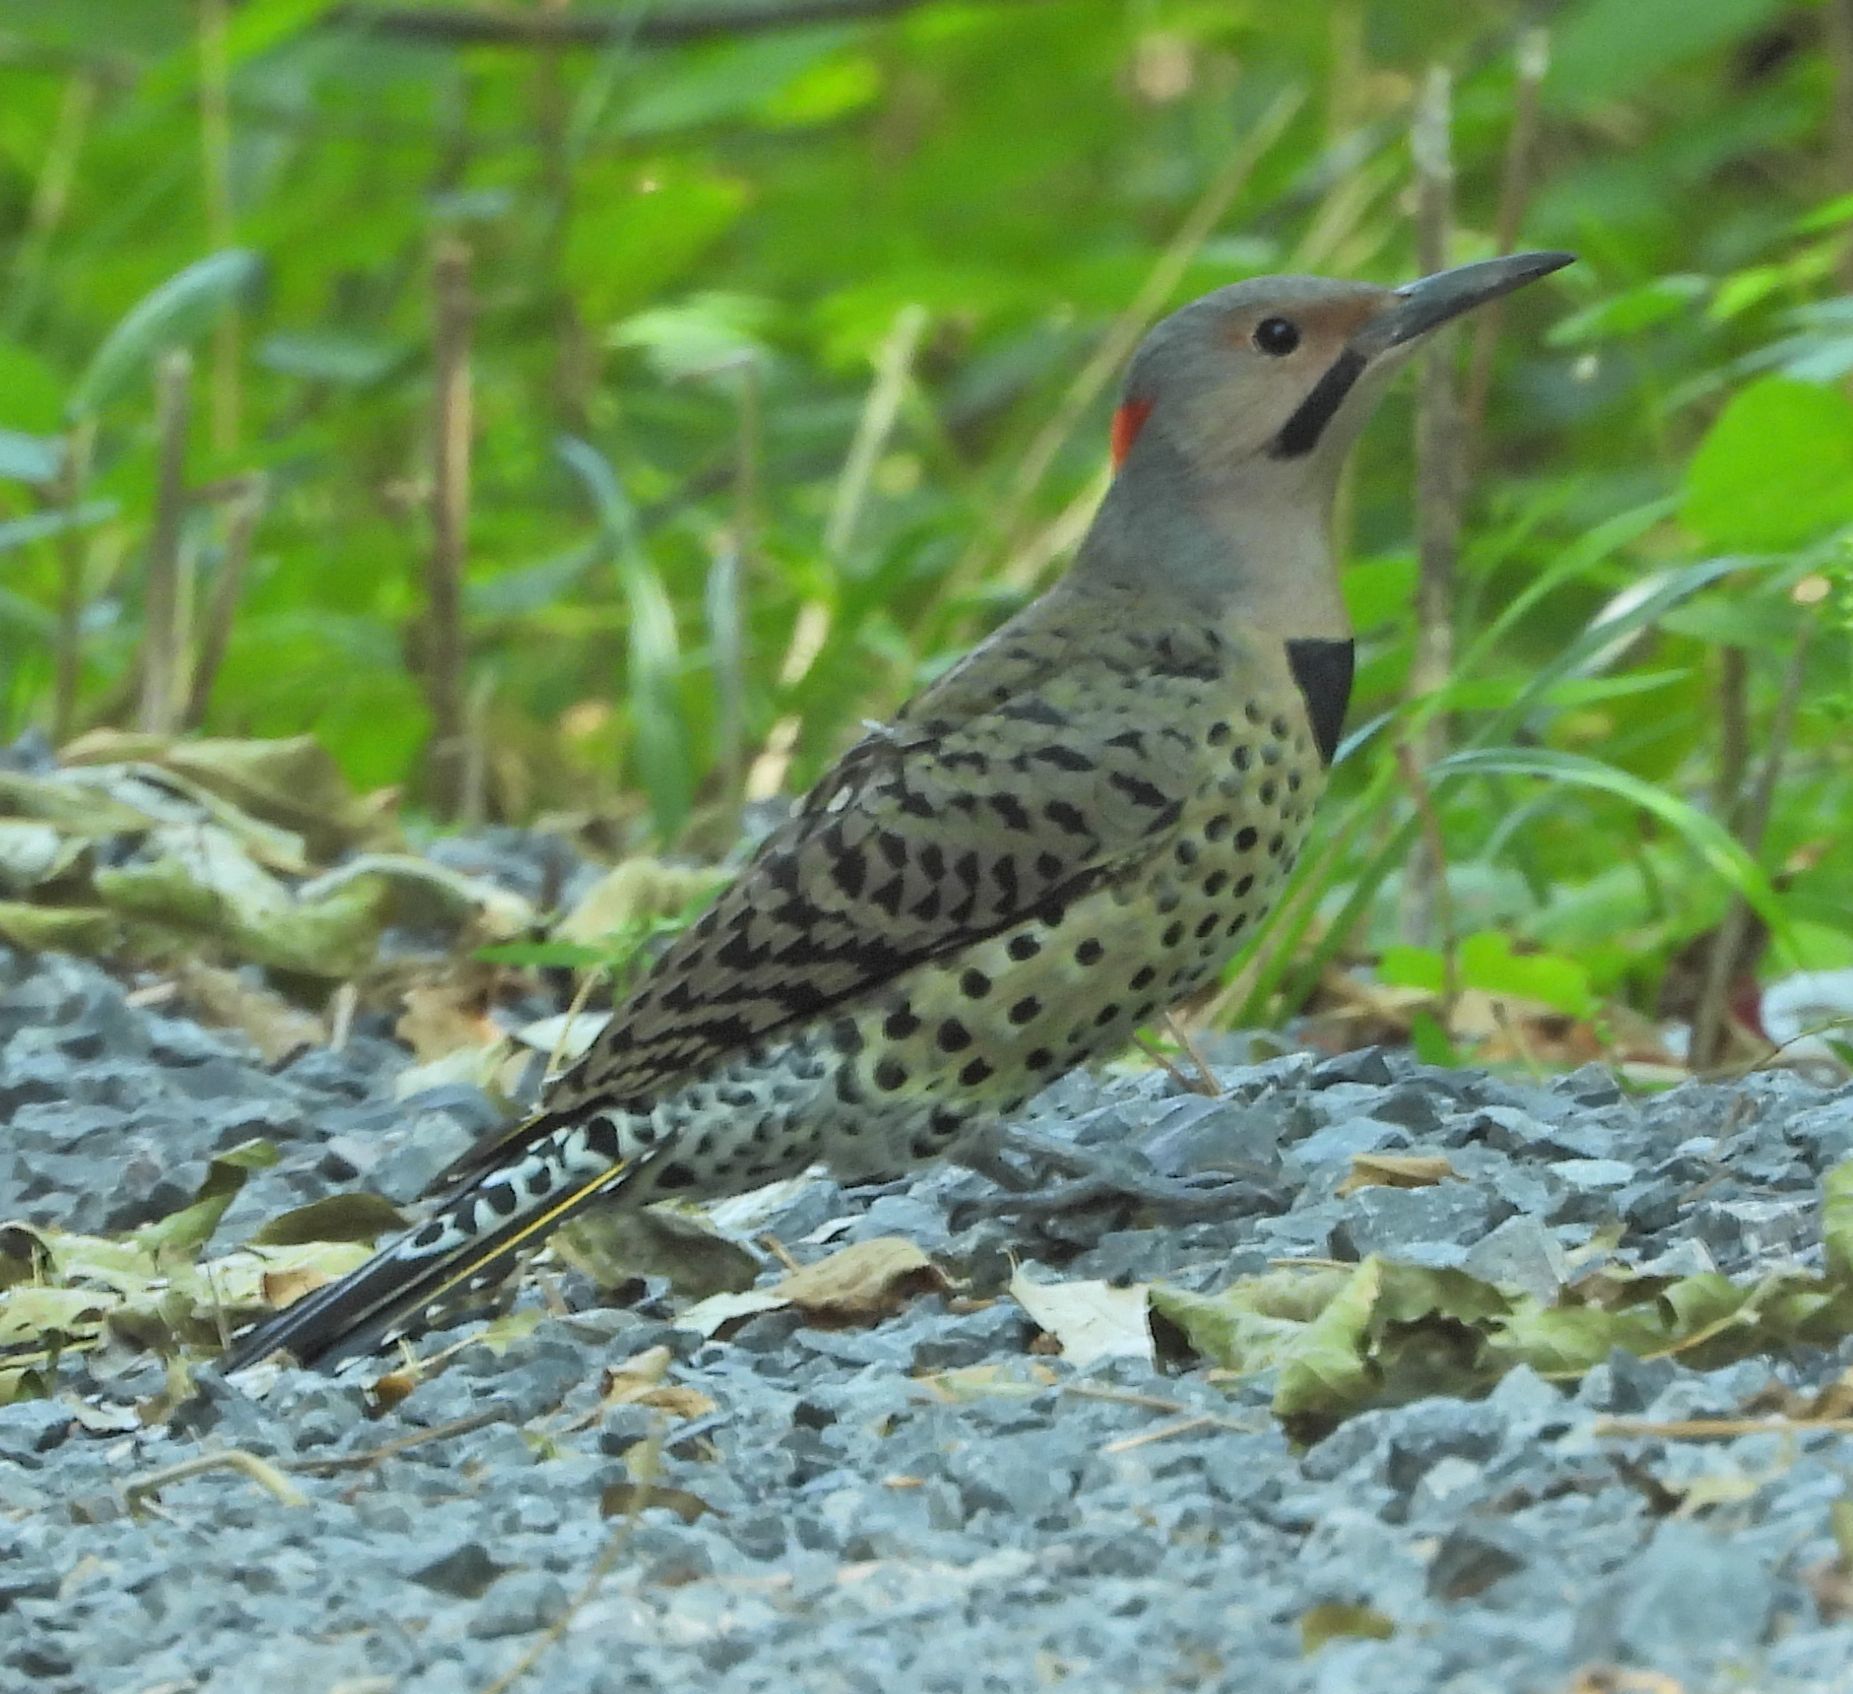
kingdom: Animalia
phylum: Chordata
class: Aves
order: Piciformes
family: Picidae
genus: Colaptes
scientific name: Colaptes auratus
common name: Northern flicker
